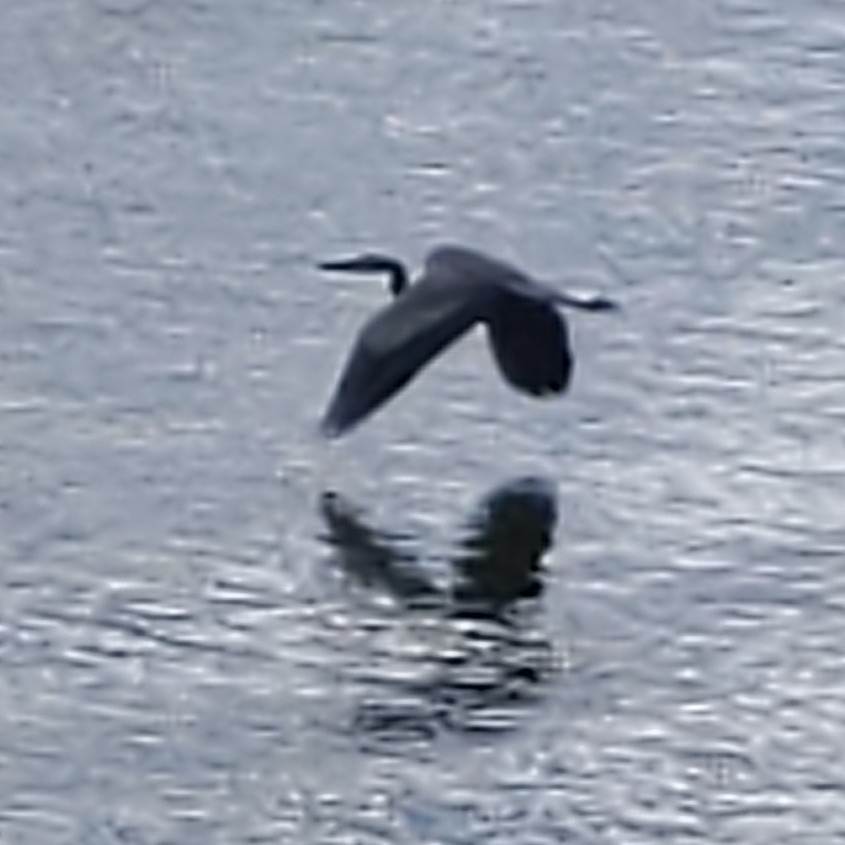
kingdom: Animalia
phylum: Chordata
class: Aves
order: Pelecaniformes
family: Ardeidae
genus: Ardea
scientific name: Ardea herodias
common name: Great blue heron
